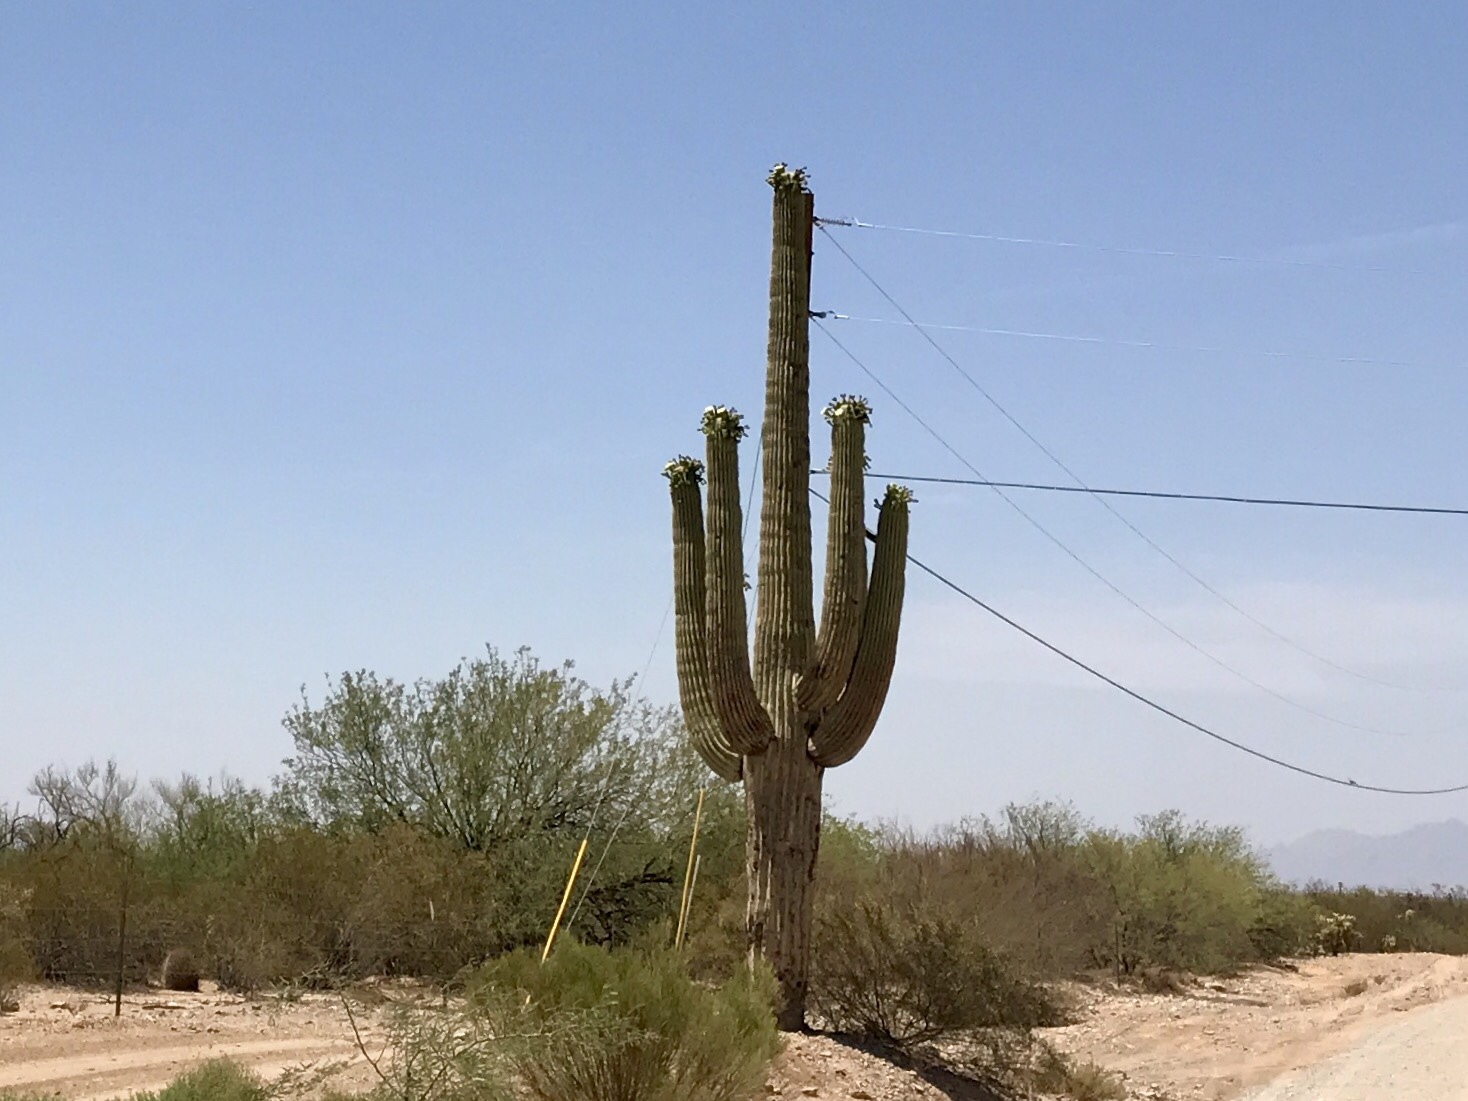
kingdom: Plantae
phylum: Tracheophyta
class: Magnoliopsida
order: Caryophyllales
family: Cactaceae
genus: Carnegiea
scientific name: Carnegiea gigantea
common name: Saguaro
